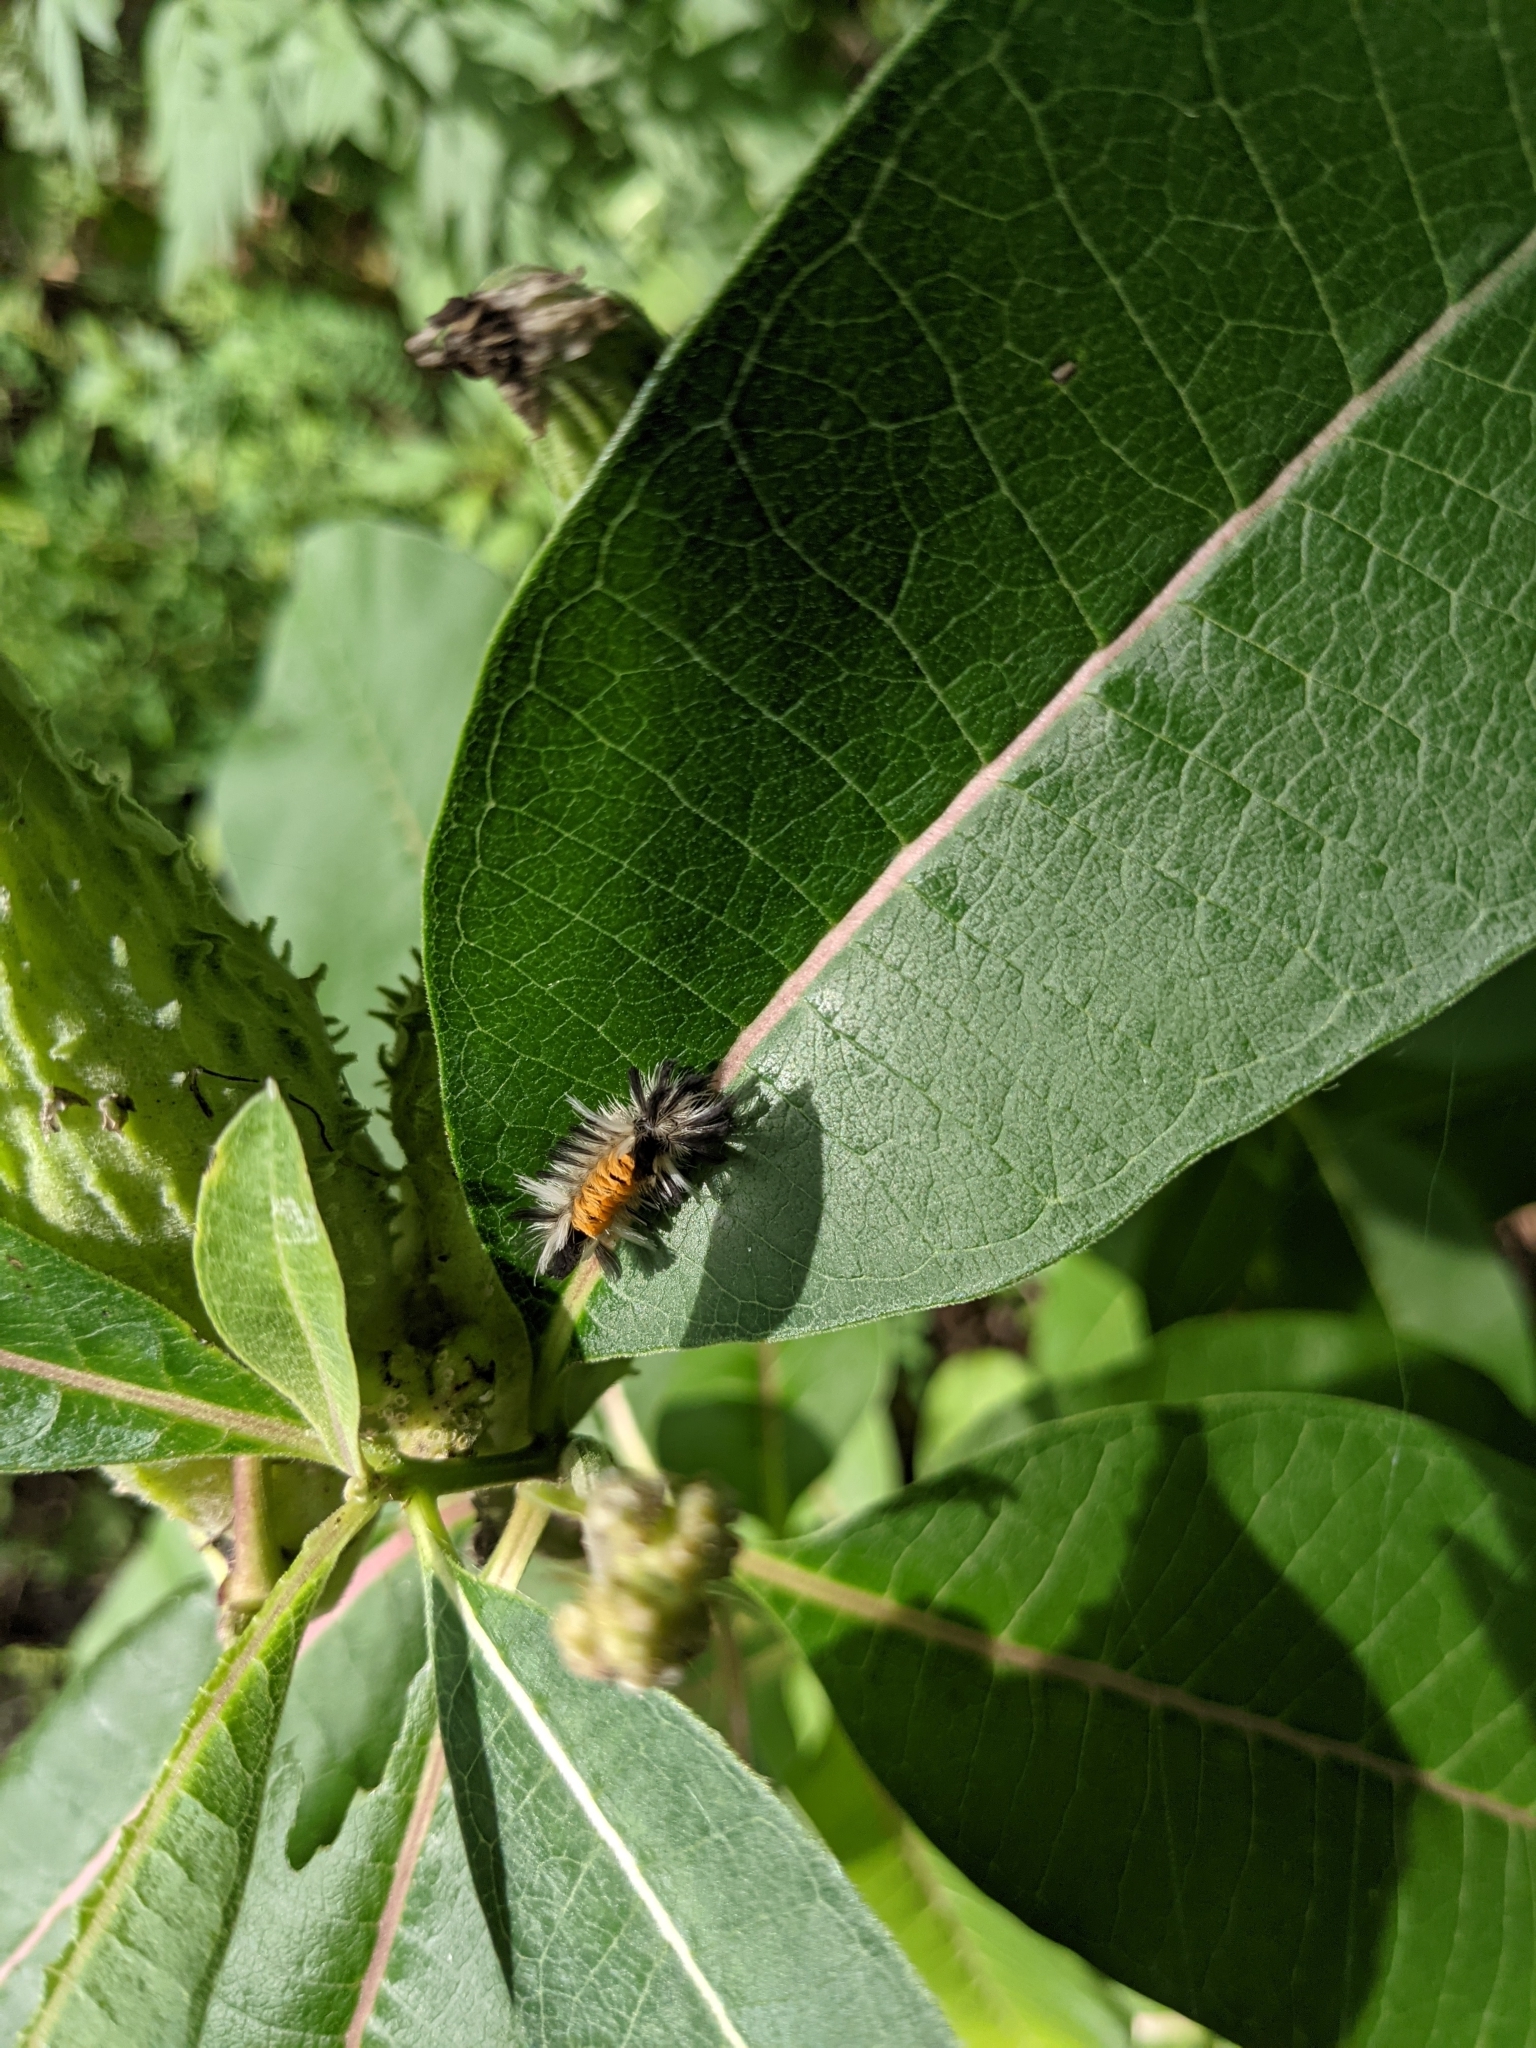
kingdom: Animalia
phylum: Arthropoda
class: Insecta
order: Lepidoptera
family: Erebidae
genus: Euchaetes
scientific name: Euchaetes egle
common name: Milkweed tussock moth
